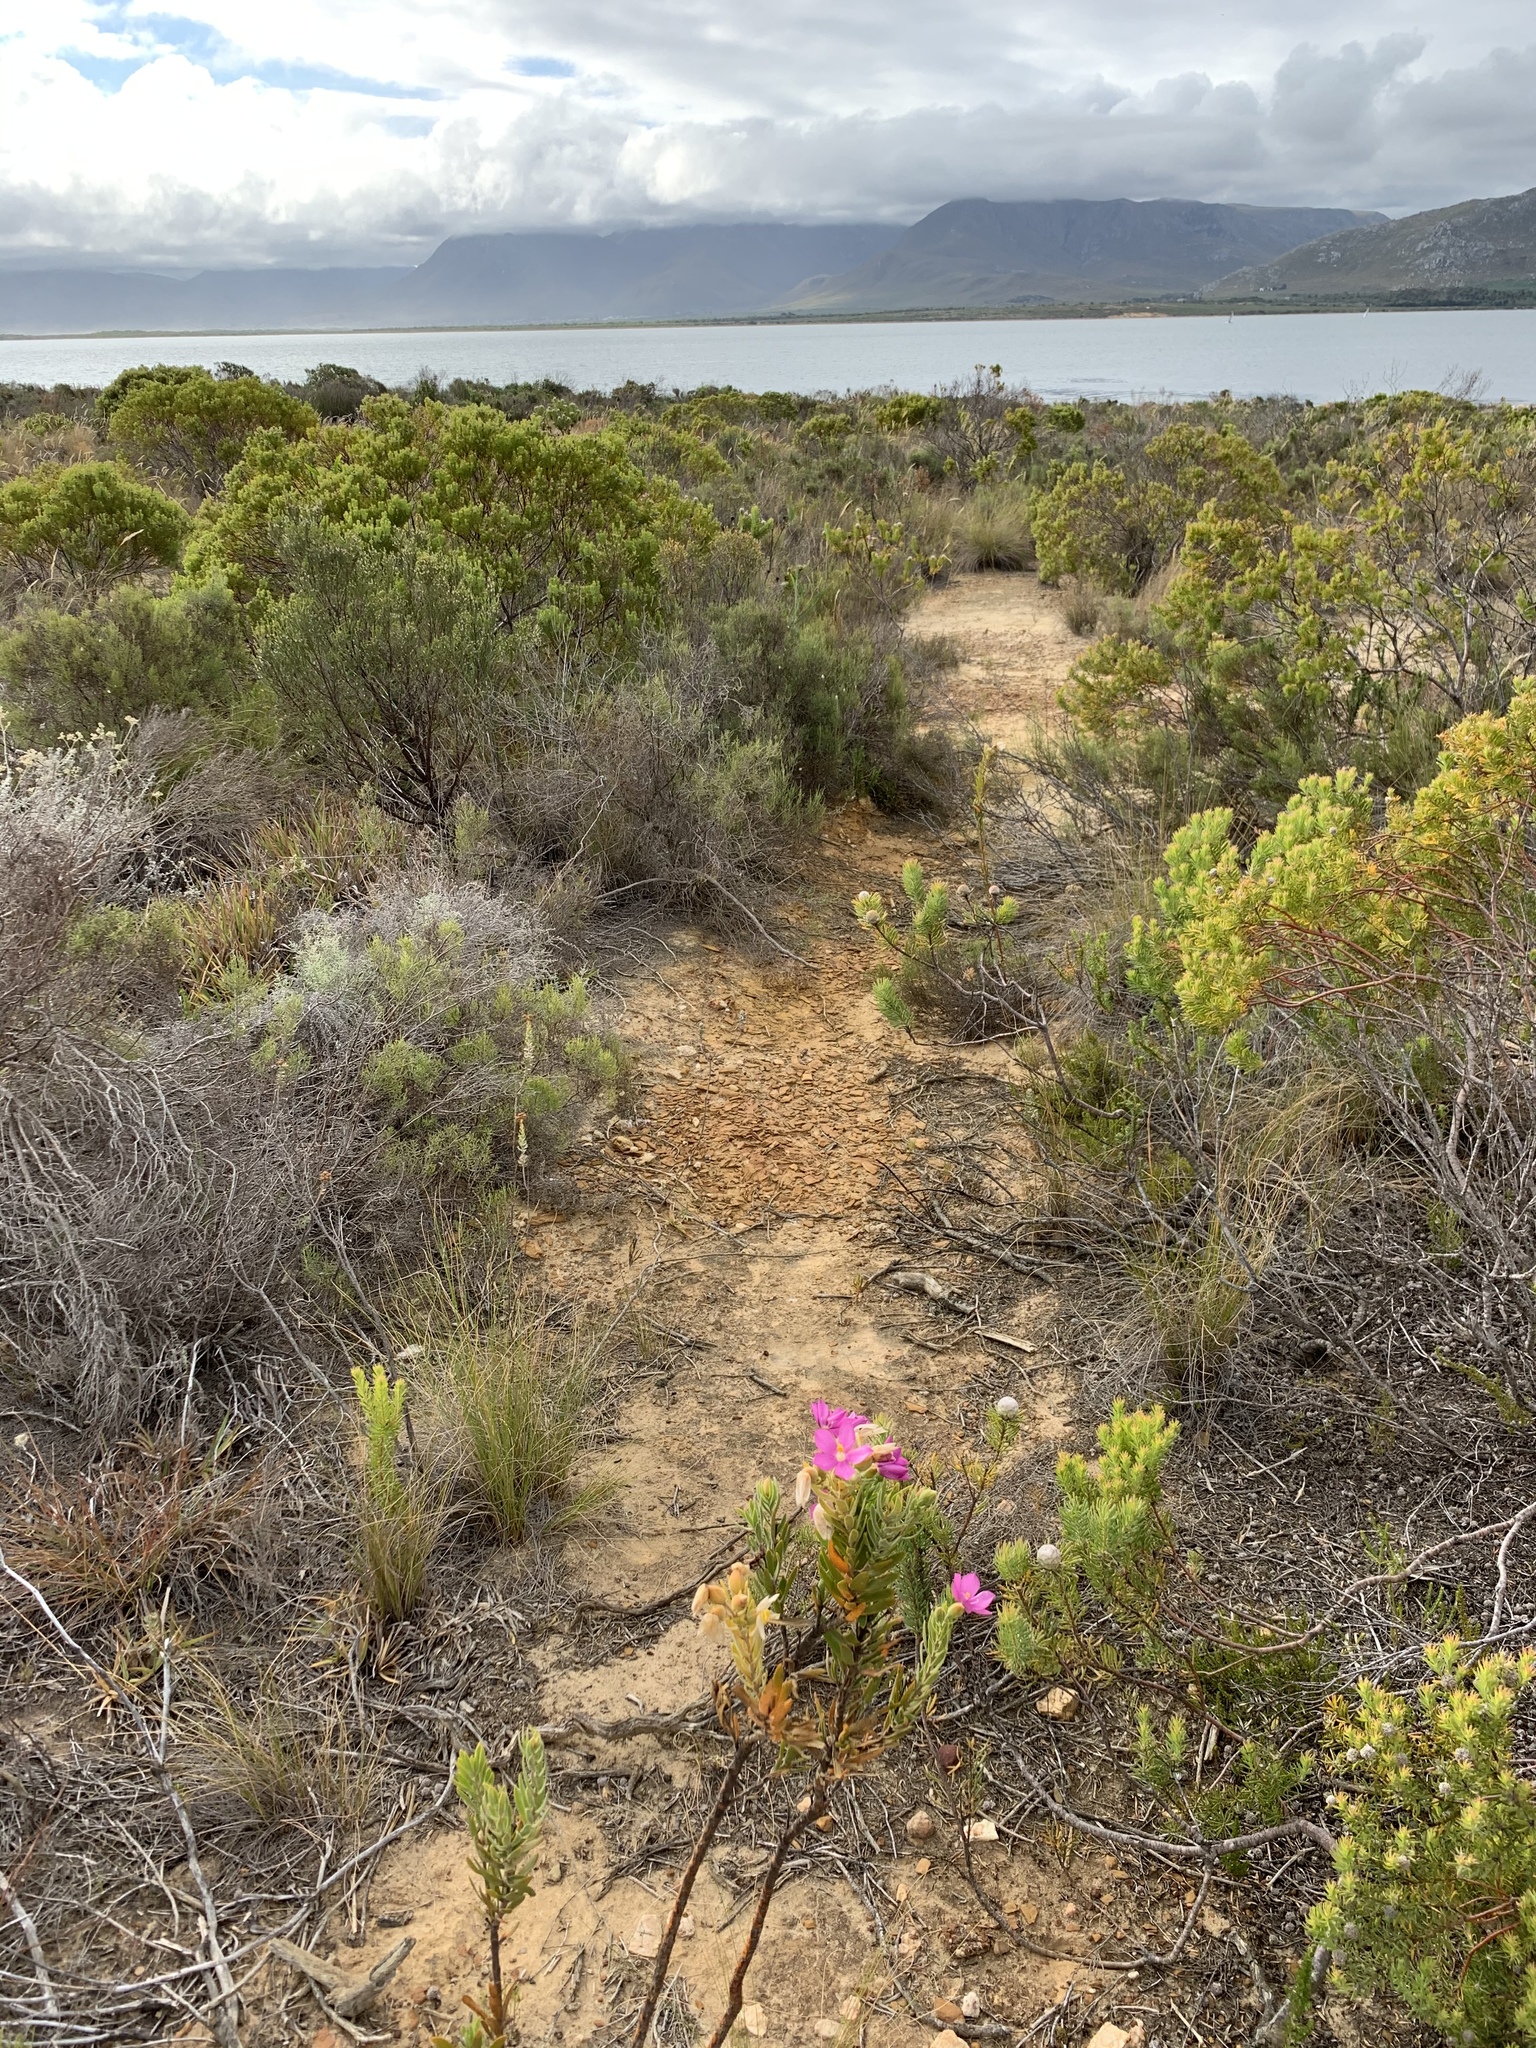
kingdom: Plantae
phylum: Tracheophyta
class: Magnoliopsida
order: Gentianales
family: Gentianaceae
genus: Orphium
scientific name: Orphium frutescens
